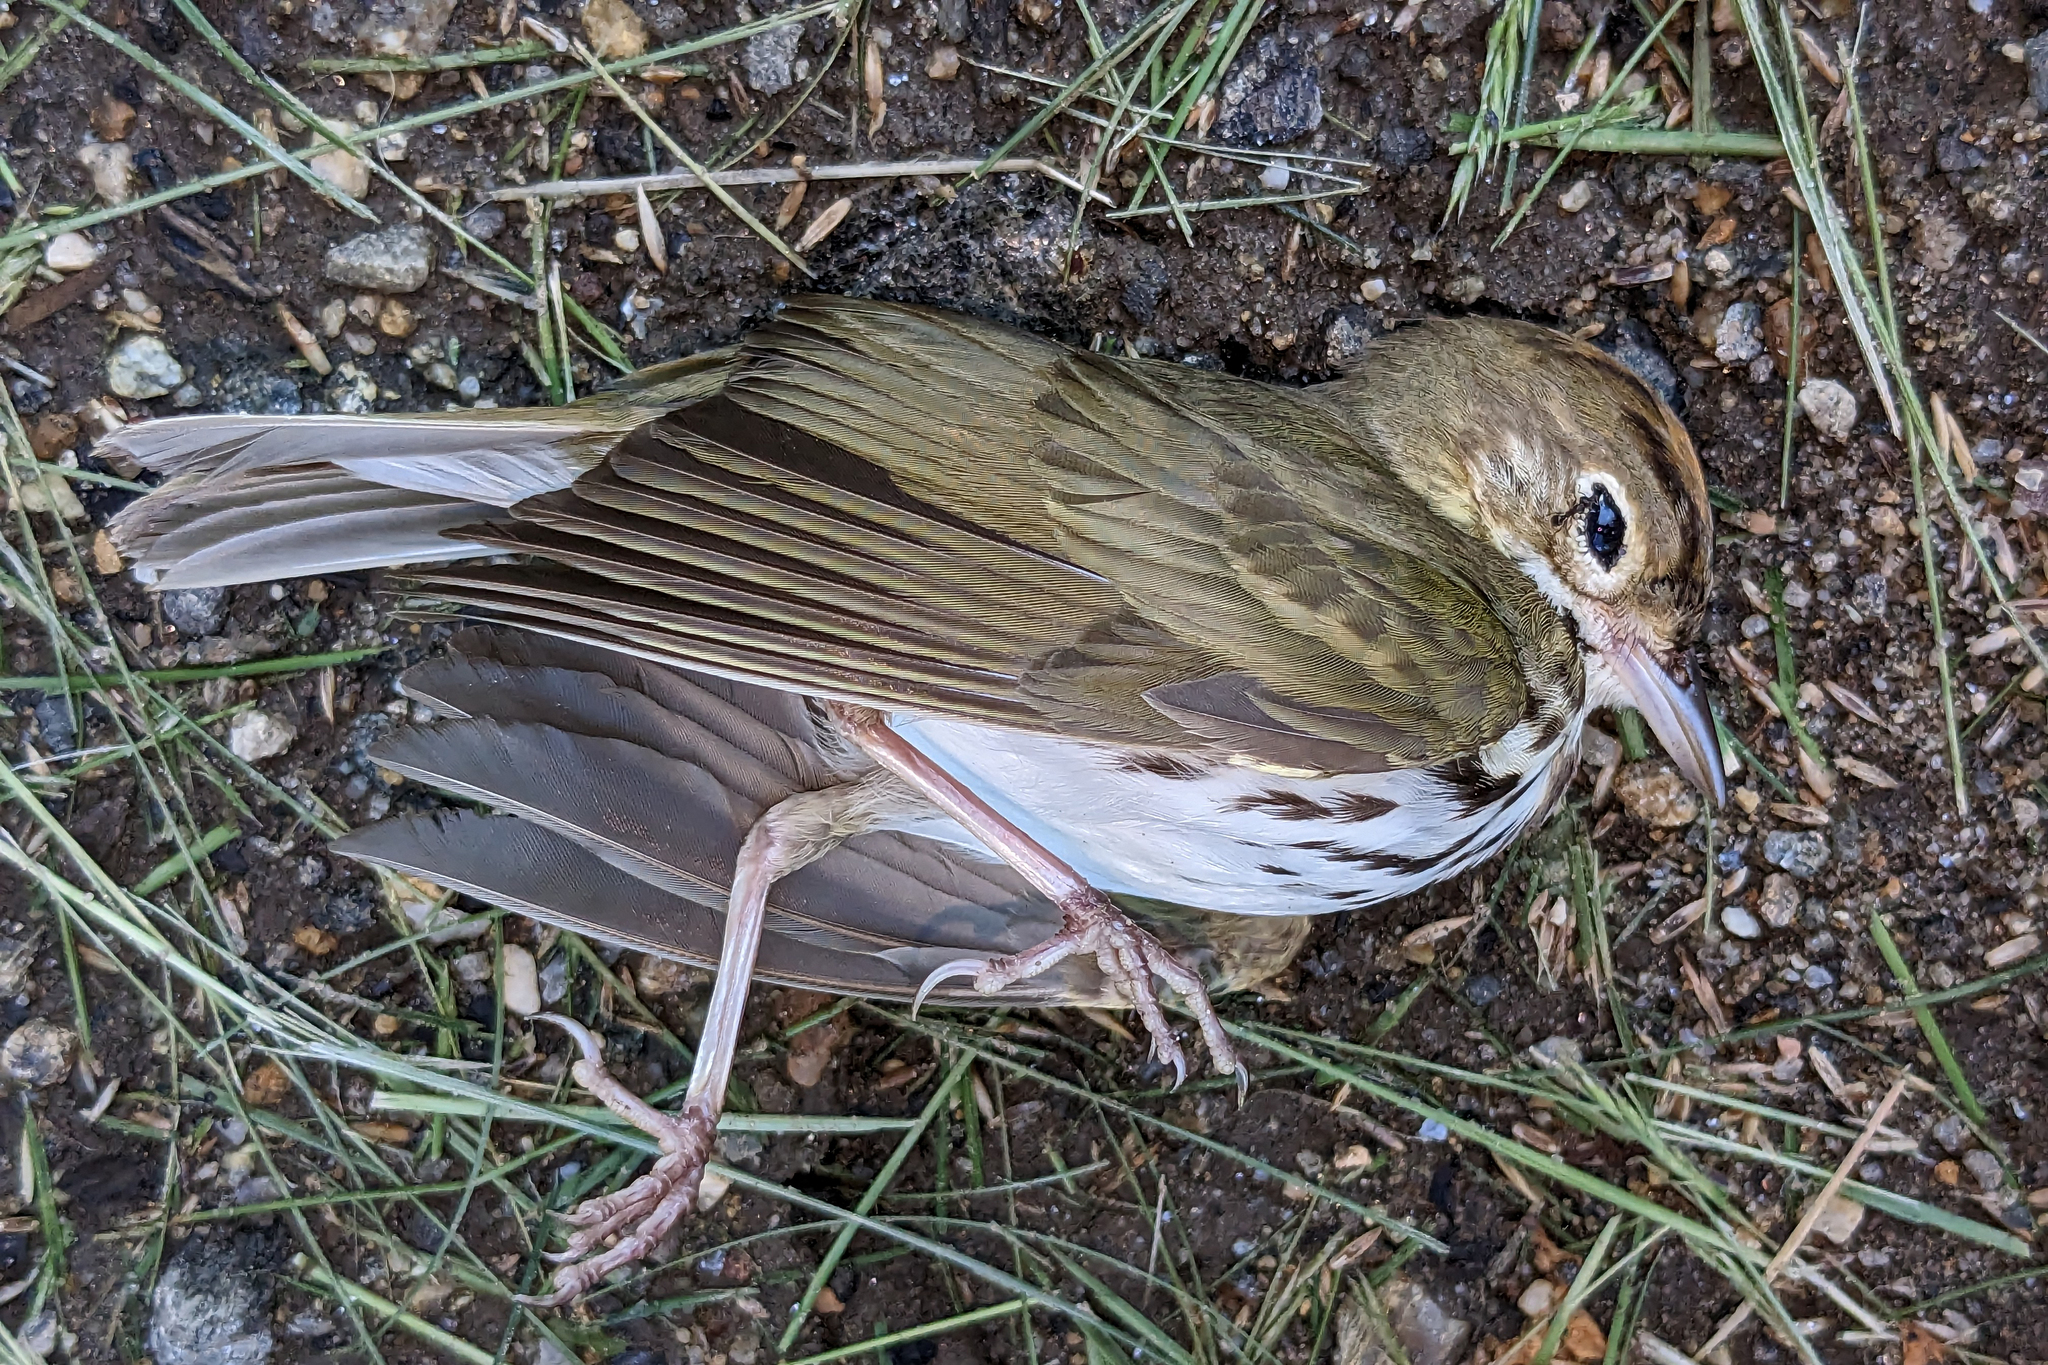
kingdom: Animalia
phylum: Chordata
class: Aves
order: Passeriformes
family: Parulidae
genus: Seiurus
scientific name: Seiurus aurocapilla
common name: Ovenbird
